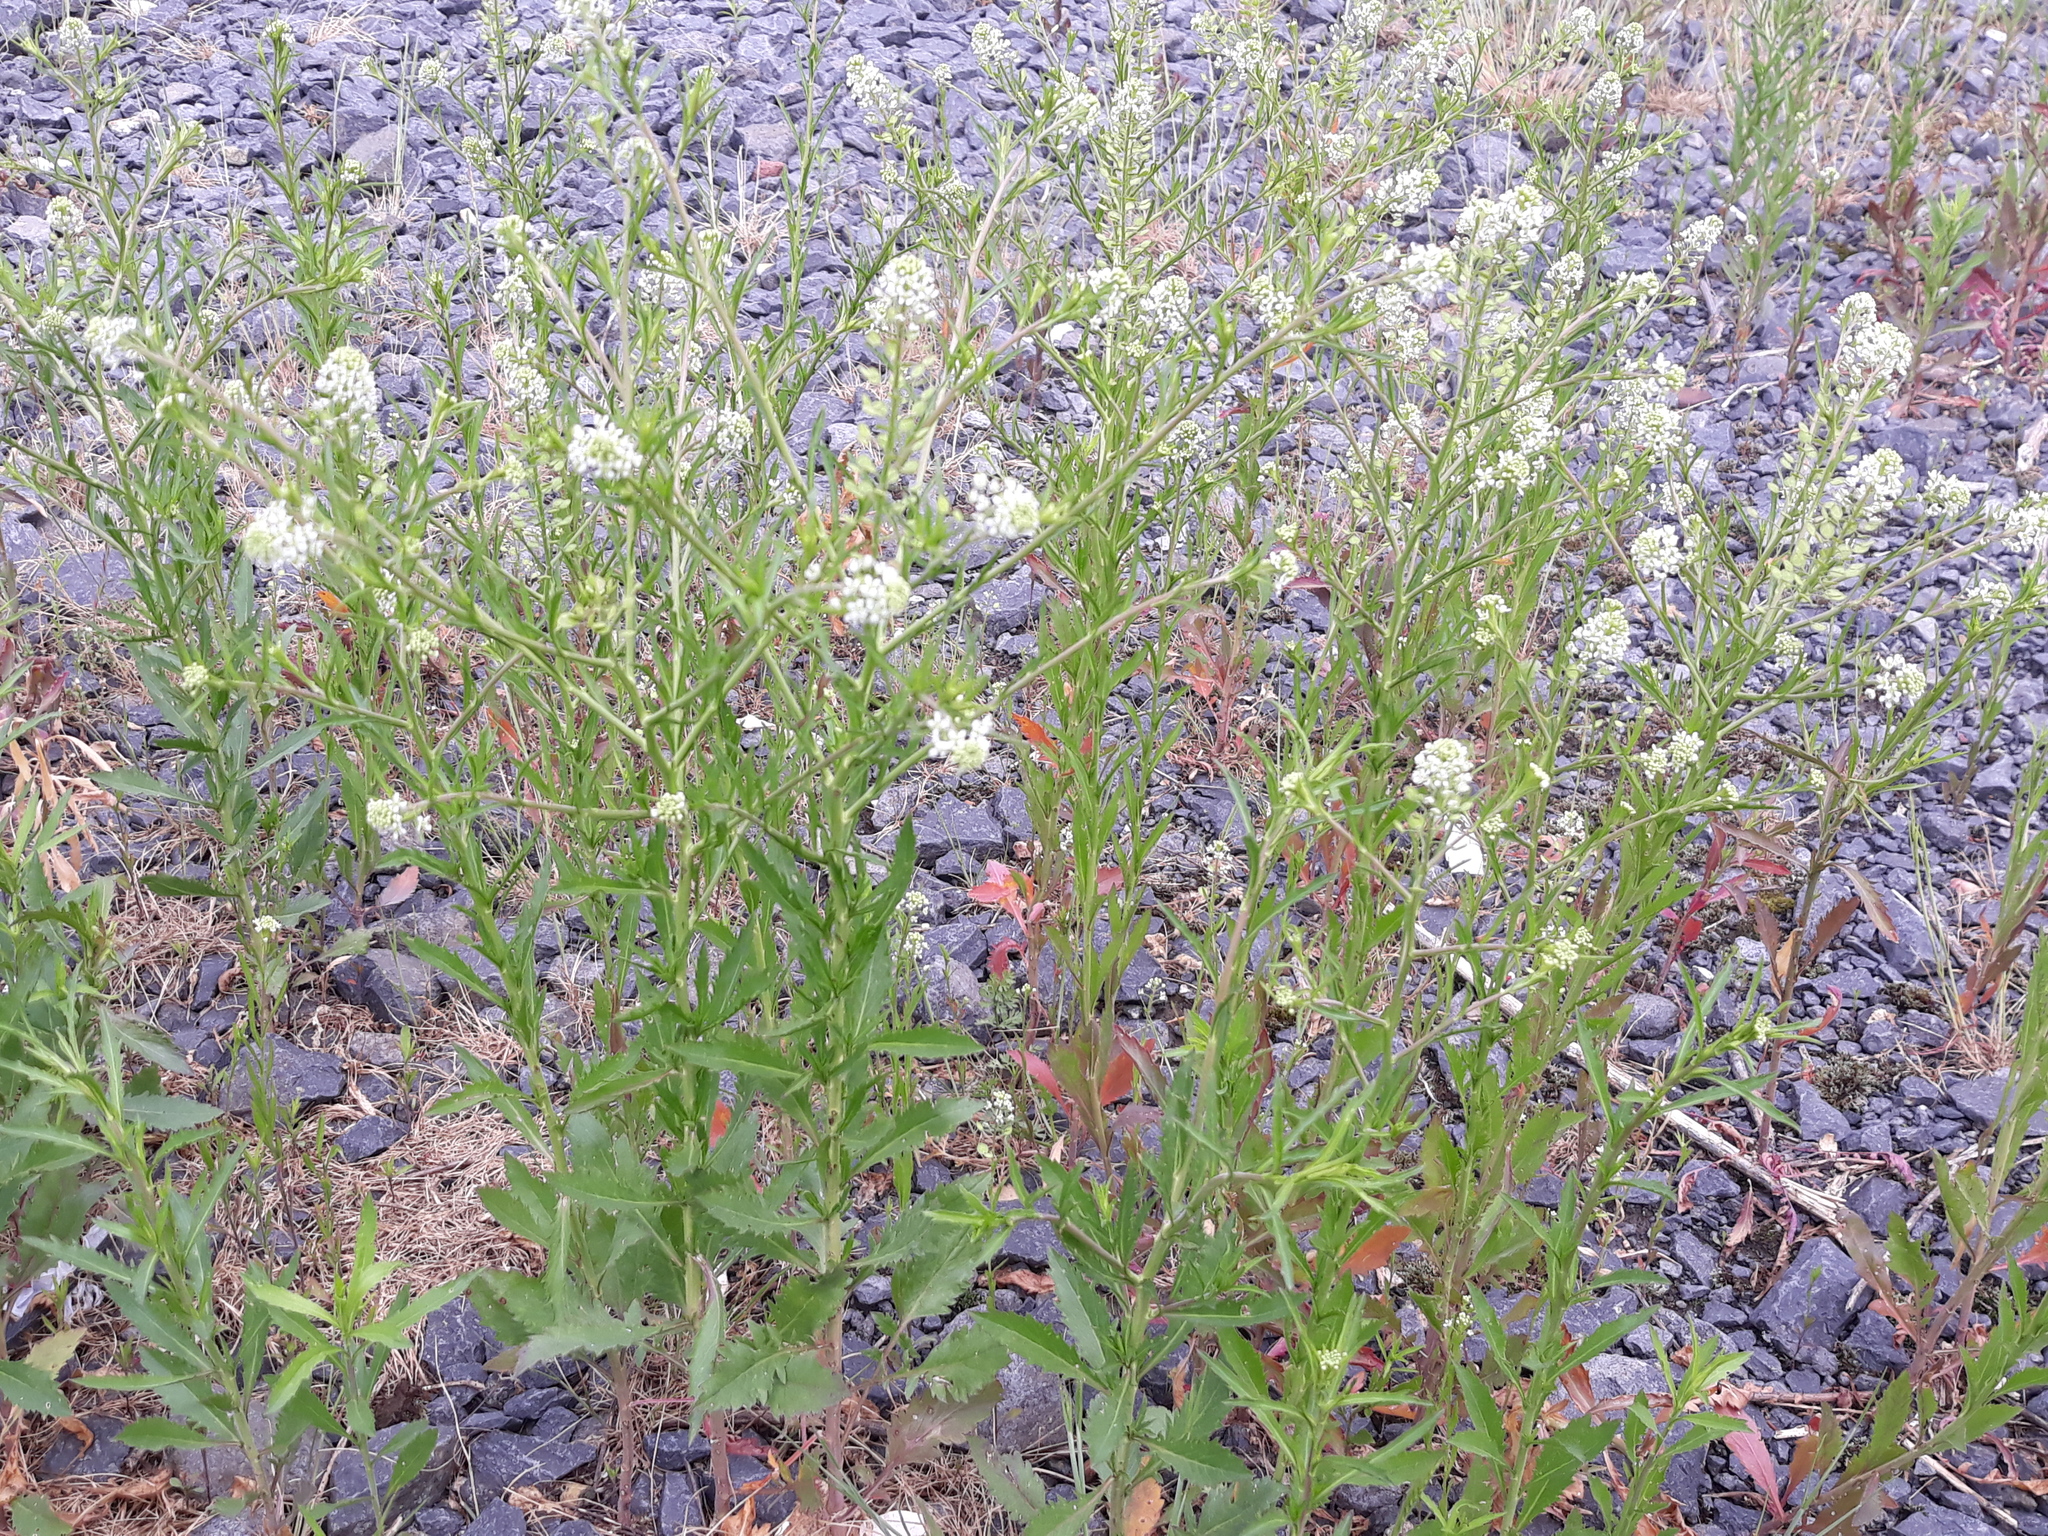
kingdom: Plantae
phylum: Tracheophyta
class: Magnoliopsida
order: Brassicales
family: Brassicaceae
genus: Lepidium
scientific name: Lepidium virginicum
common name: Least pepperwort
